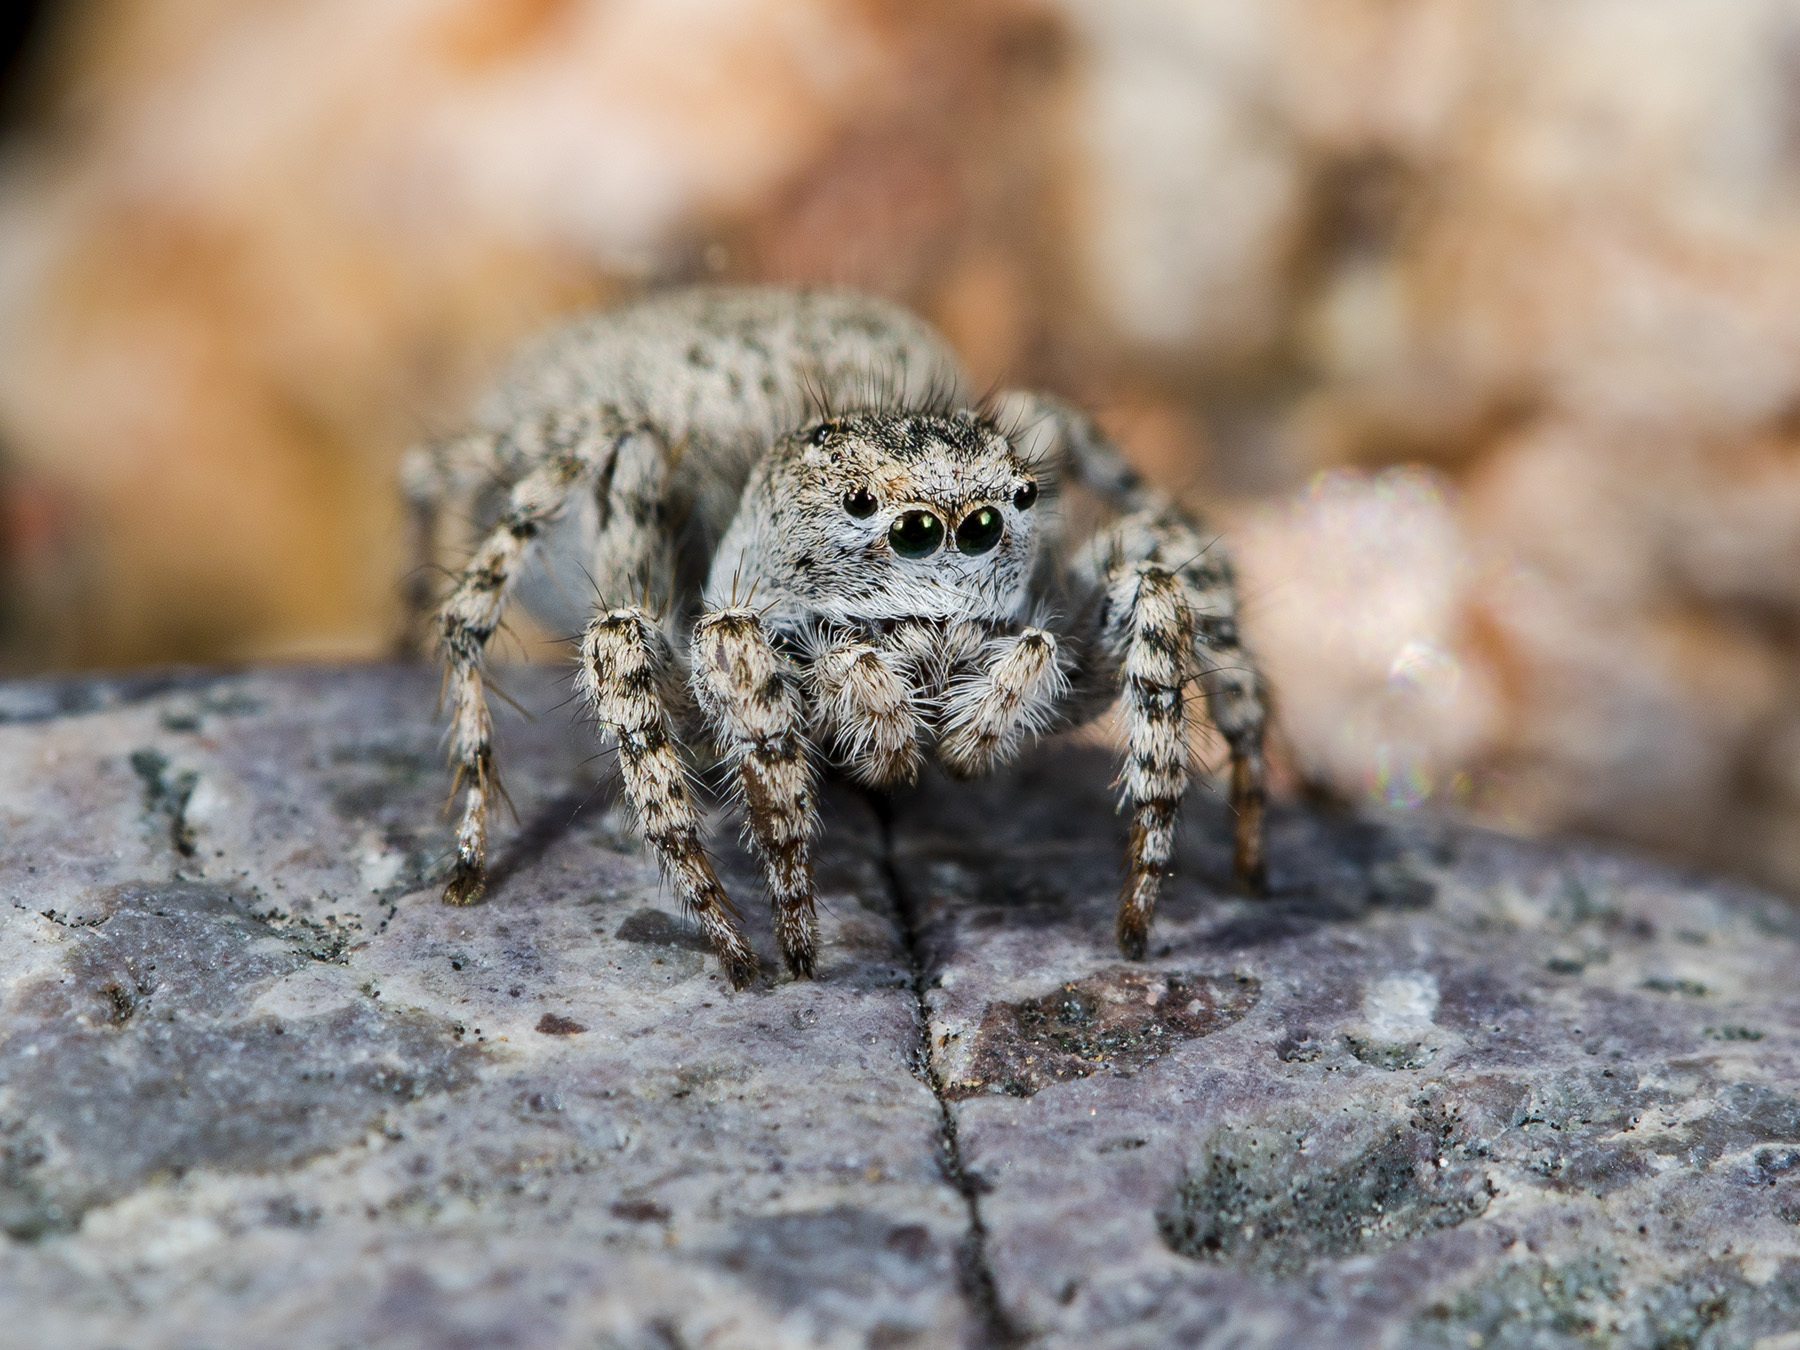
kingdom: Animalia
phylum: Arthropoda
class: Arachnida
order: Araneae
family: Salticidae
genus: Aelurillus
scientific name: Aelurillus dubatolovi
